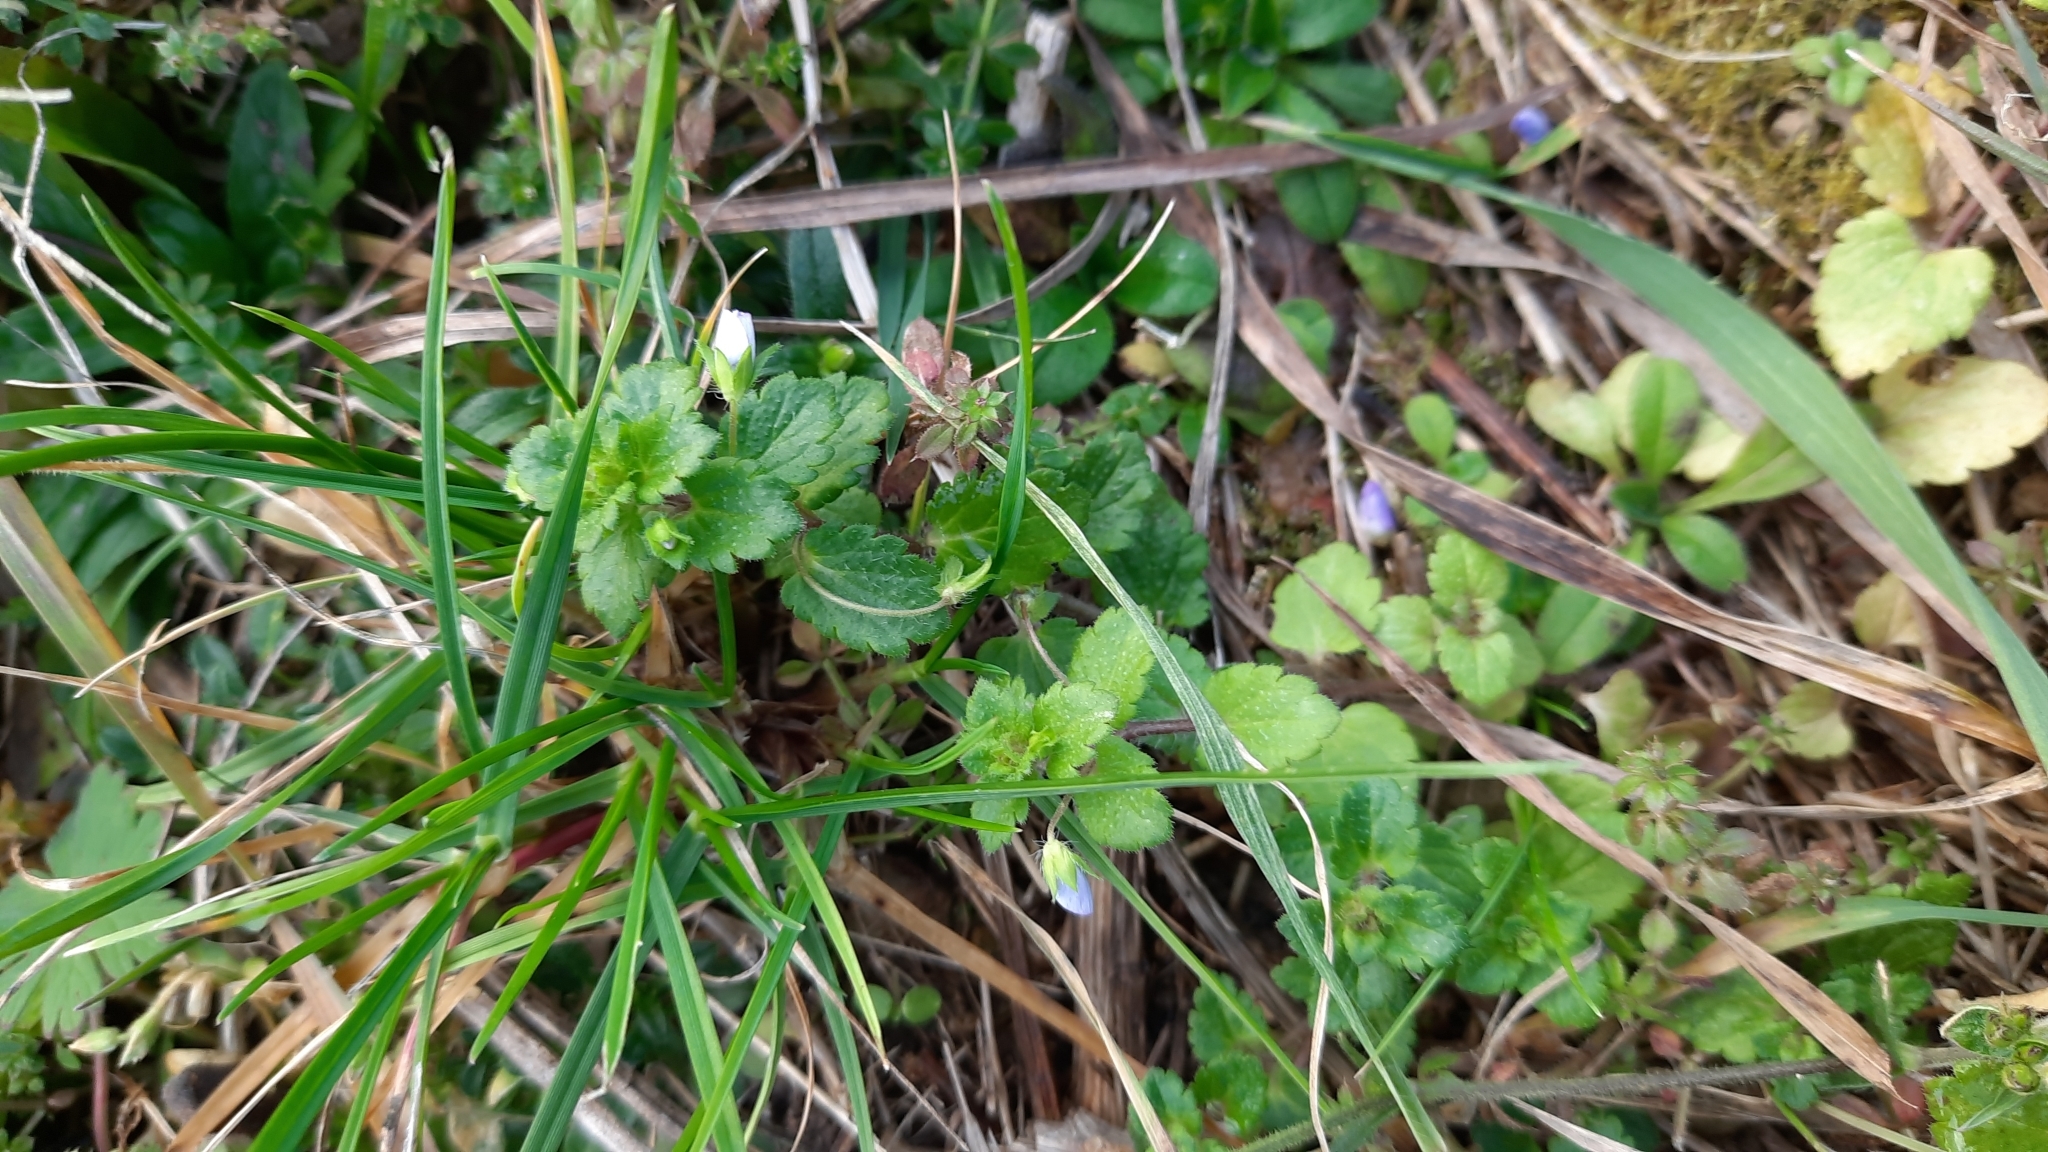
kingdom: Plantae
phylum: Tracheophyta
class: Magnoliopsida
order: Lamiales
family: Plantaginaceae
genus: Veronica
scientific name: Veronica persica
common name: Common field-speedwell
